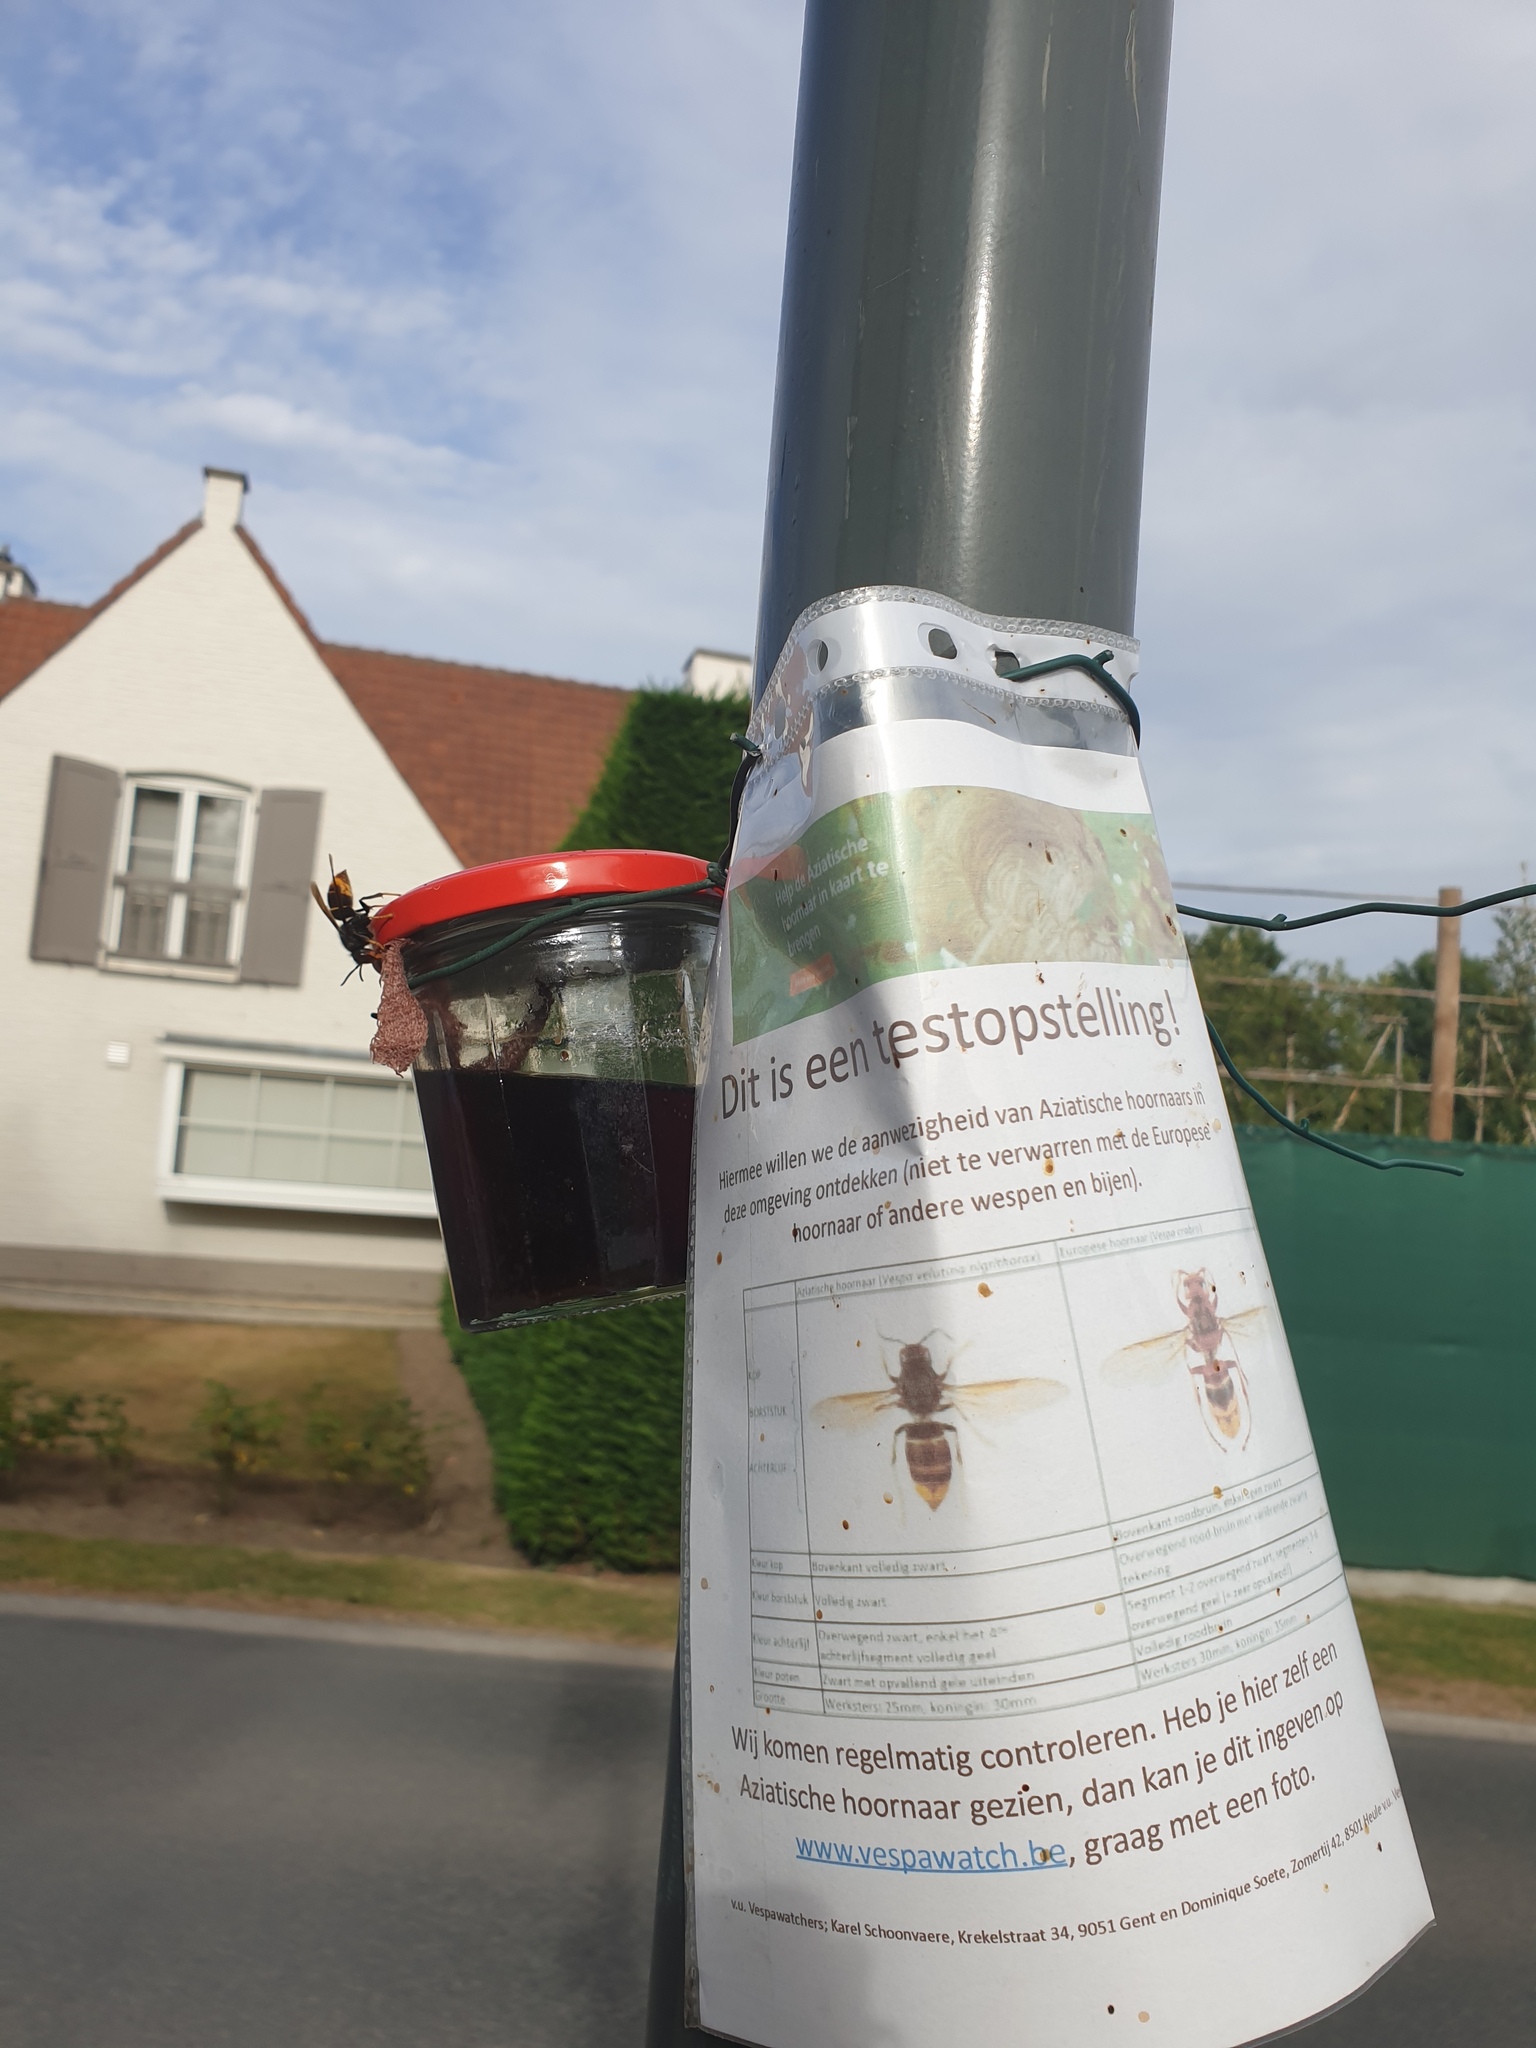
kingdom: Animalia
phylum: Arthropoda
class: Insecta
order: Hymenoptera
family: Vespidae
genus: Vespa
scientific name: Vespa velutina
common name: Asian hornet
